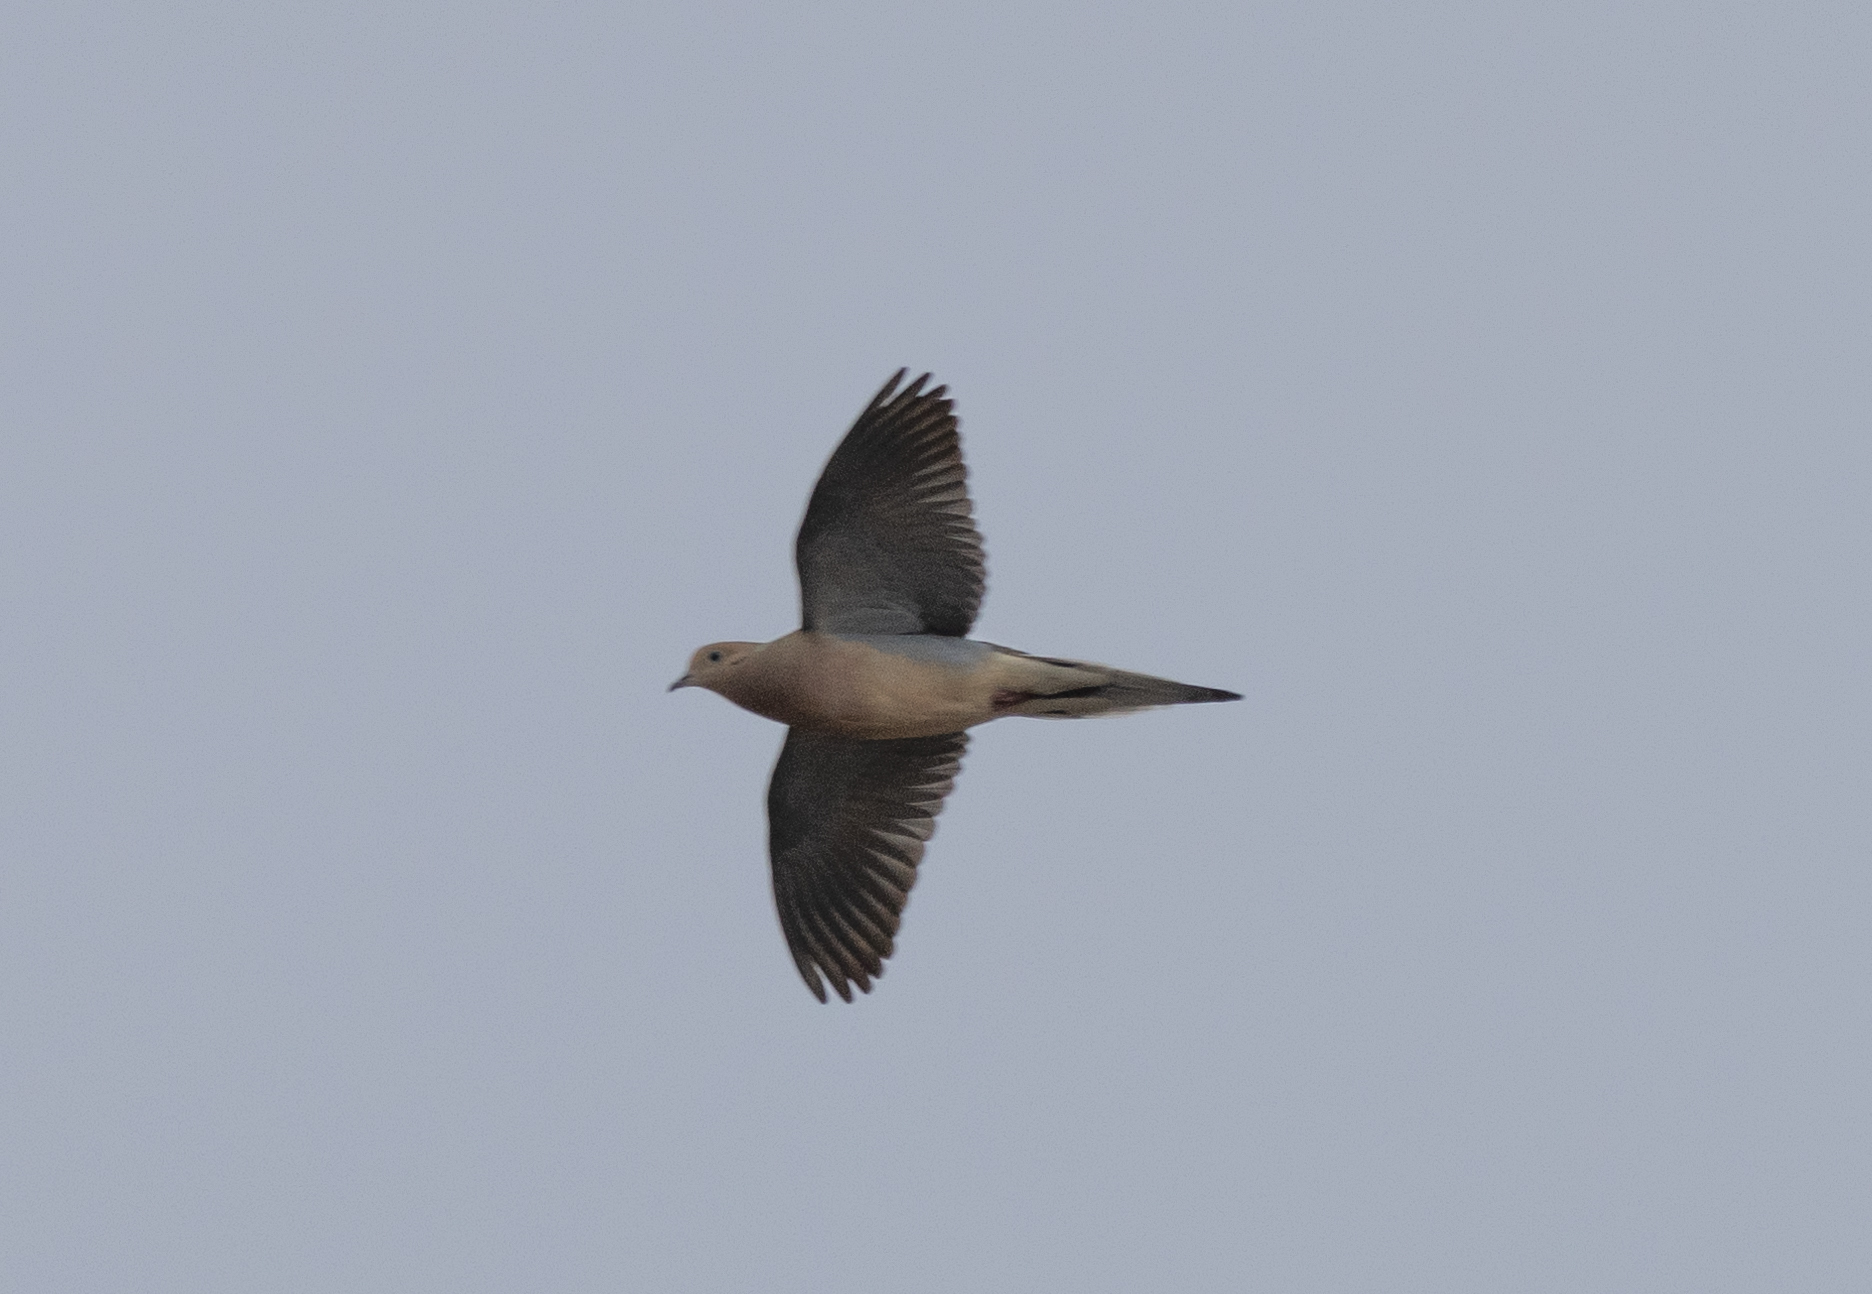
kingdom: Animalia
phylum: Chordata
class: Aves
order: Columbiformes
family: Columbidae
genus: Zenaida
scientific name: Zenaida macroura
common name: Mourning dove
